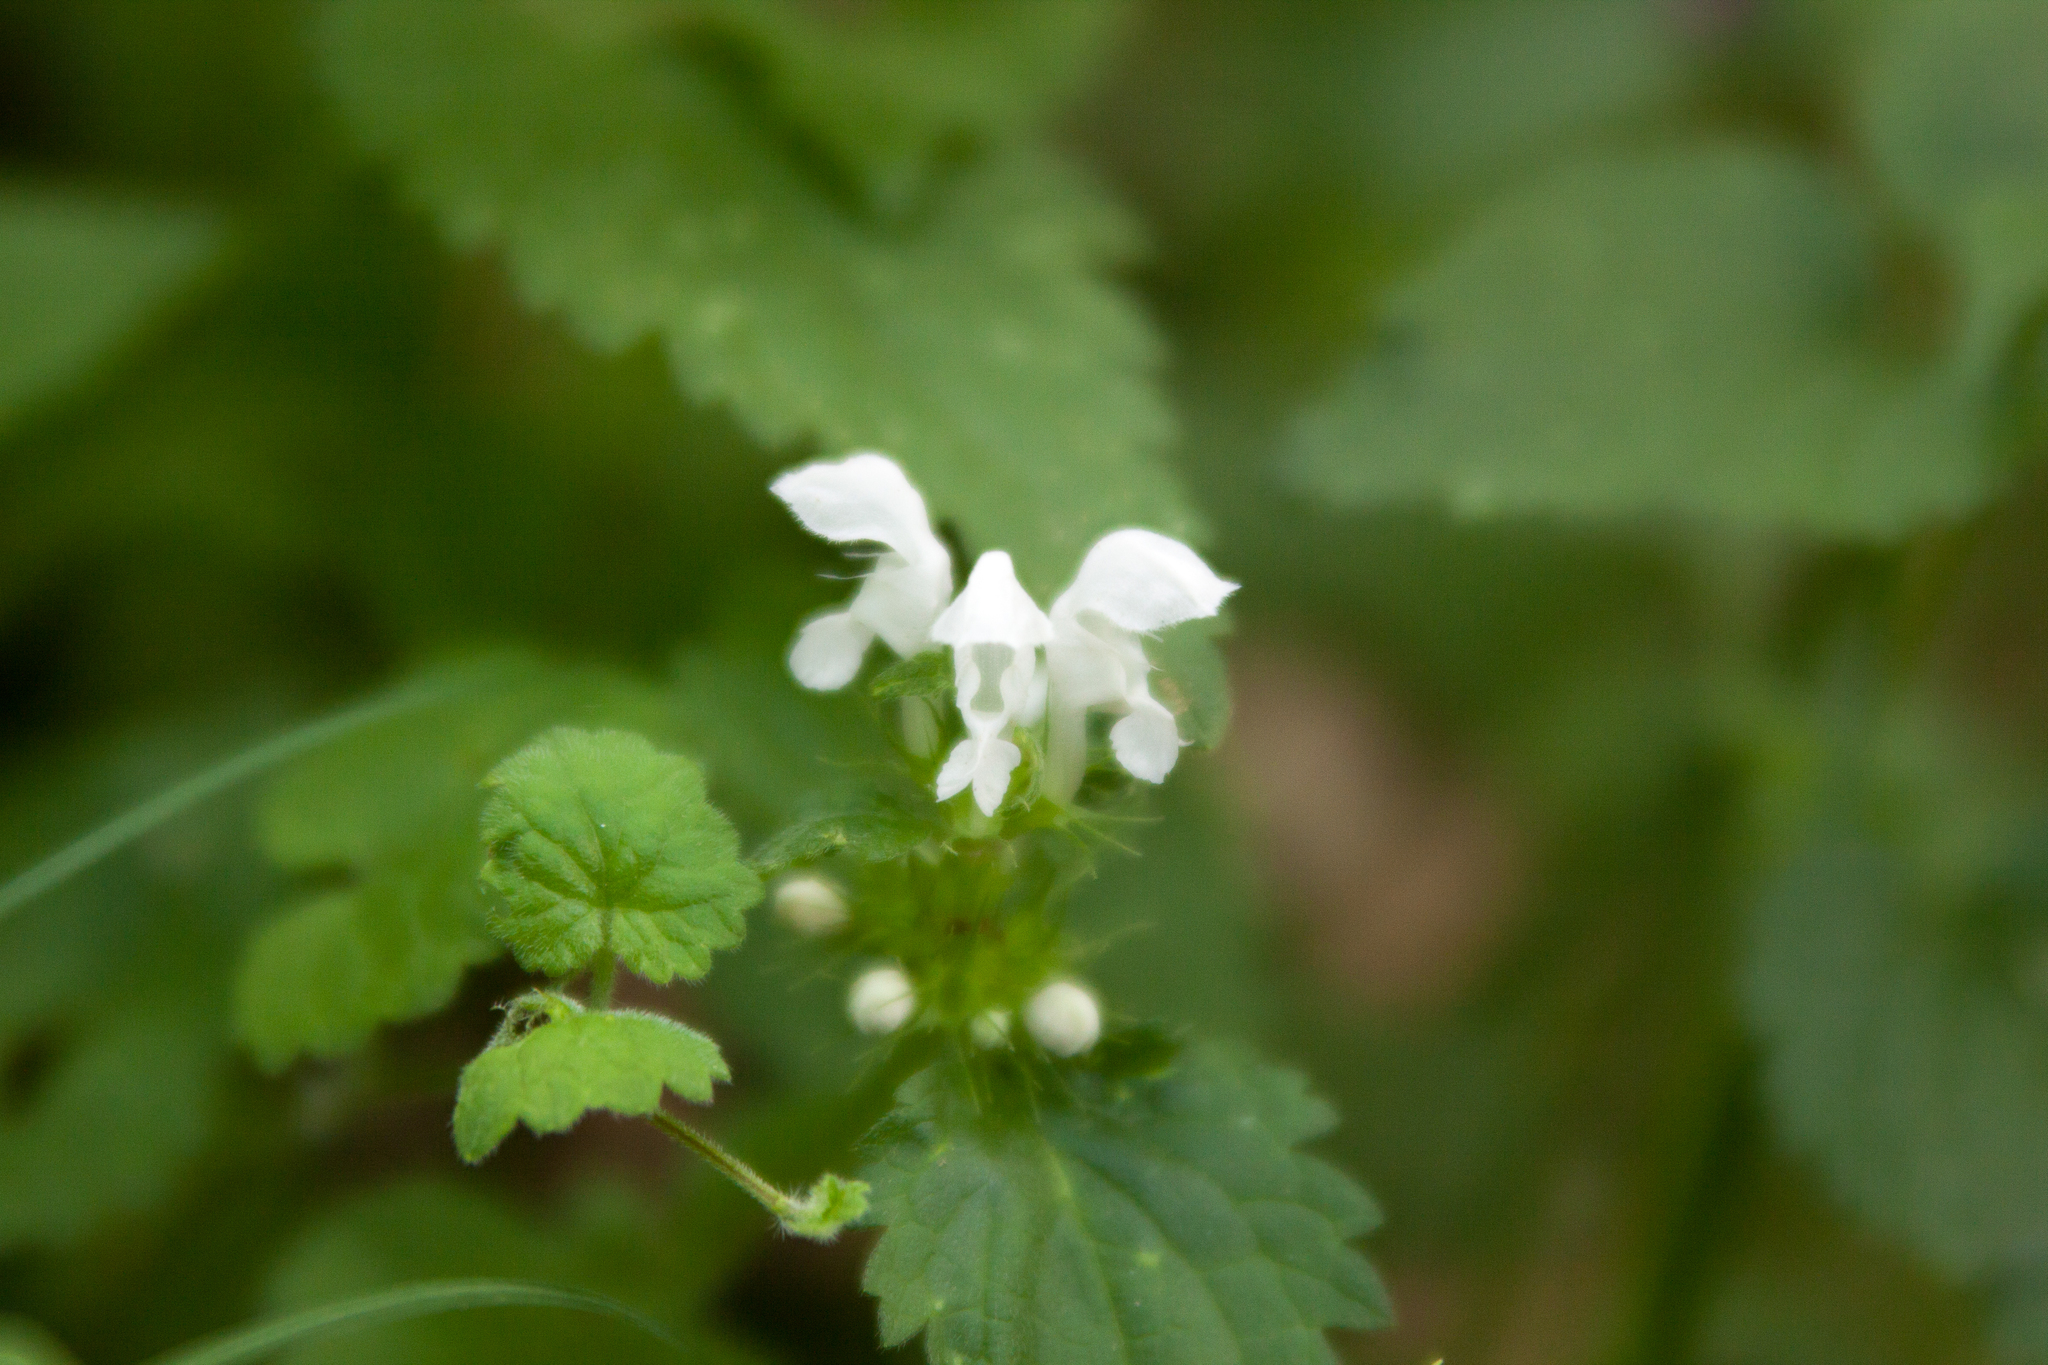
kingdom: Plantae
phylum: Tracheophyta
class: Magnoliopsida
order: Lamiales
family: Lamiaceae
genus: Lamium
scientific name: Lamium album
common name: White dead-nettle
